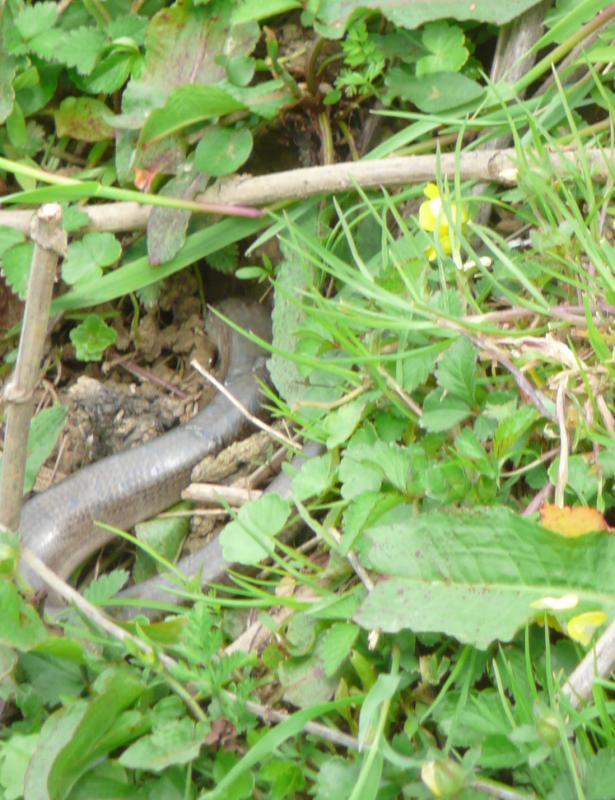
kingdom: Animalia
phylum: Chordata
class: Squamata
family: Anguidae
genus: Anguis
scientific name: Anguis colchica
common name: Slow worm
